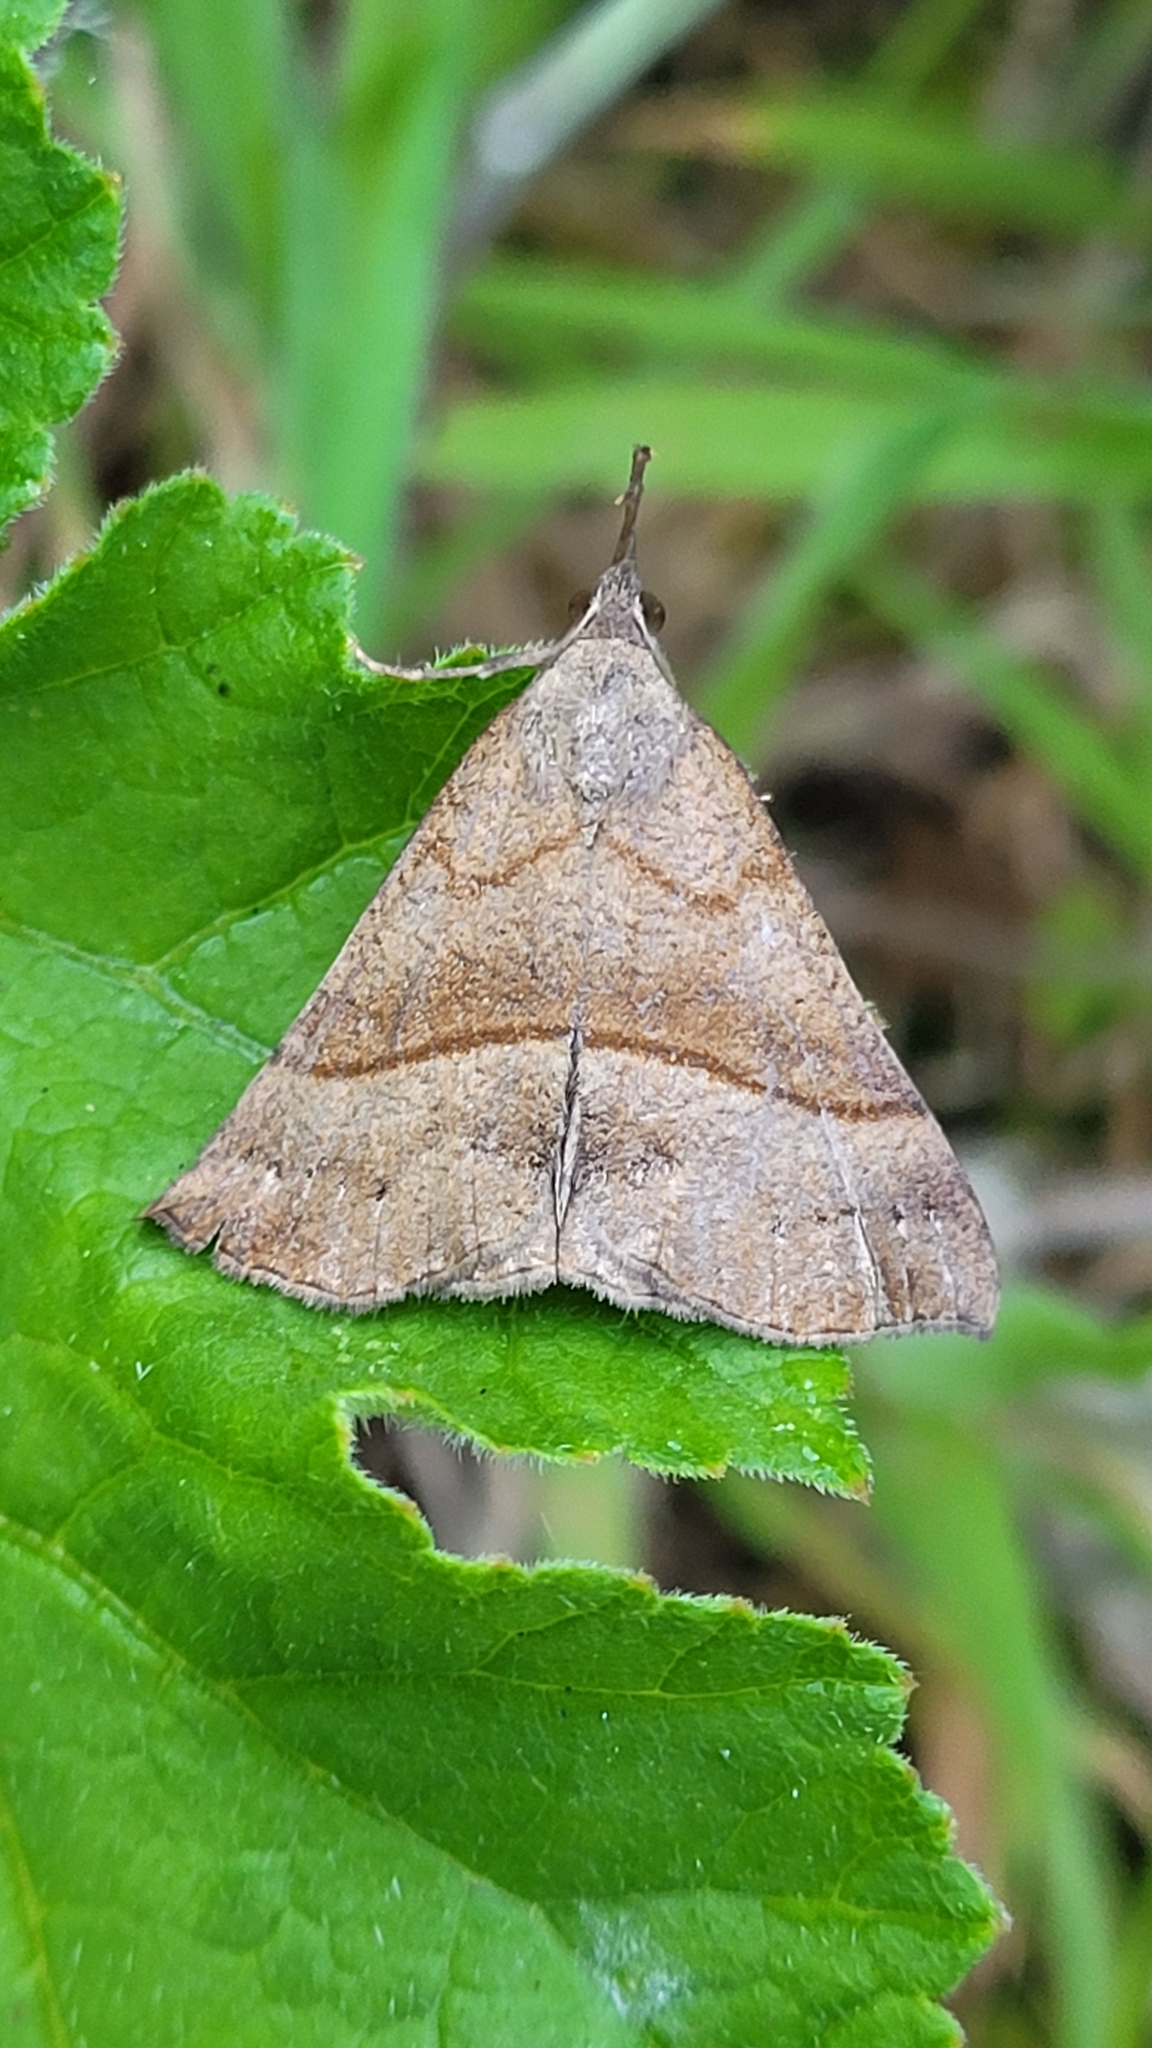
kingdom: Animalia
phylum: Arthropoda
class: Insecta
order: Lepidoptera
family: Erebidae
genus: Hypena
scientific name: Hypena proboscidalis
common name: Snout
